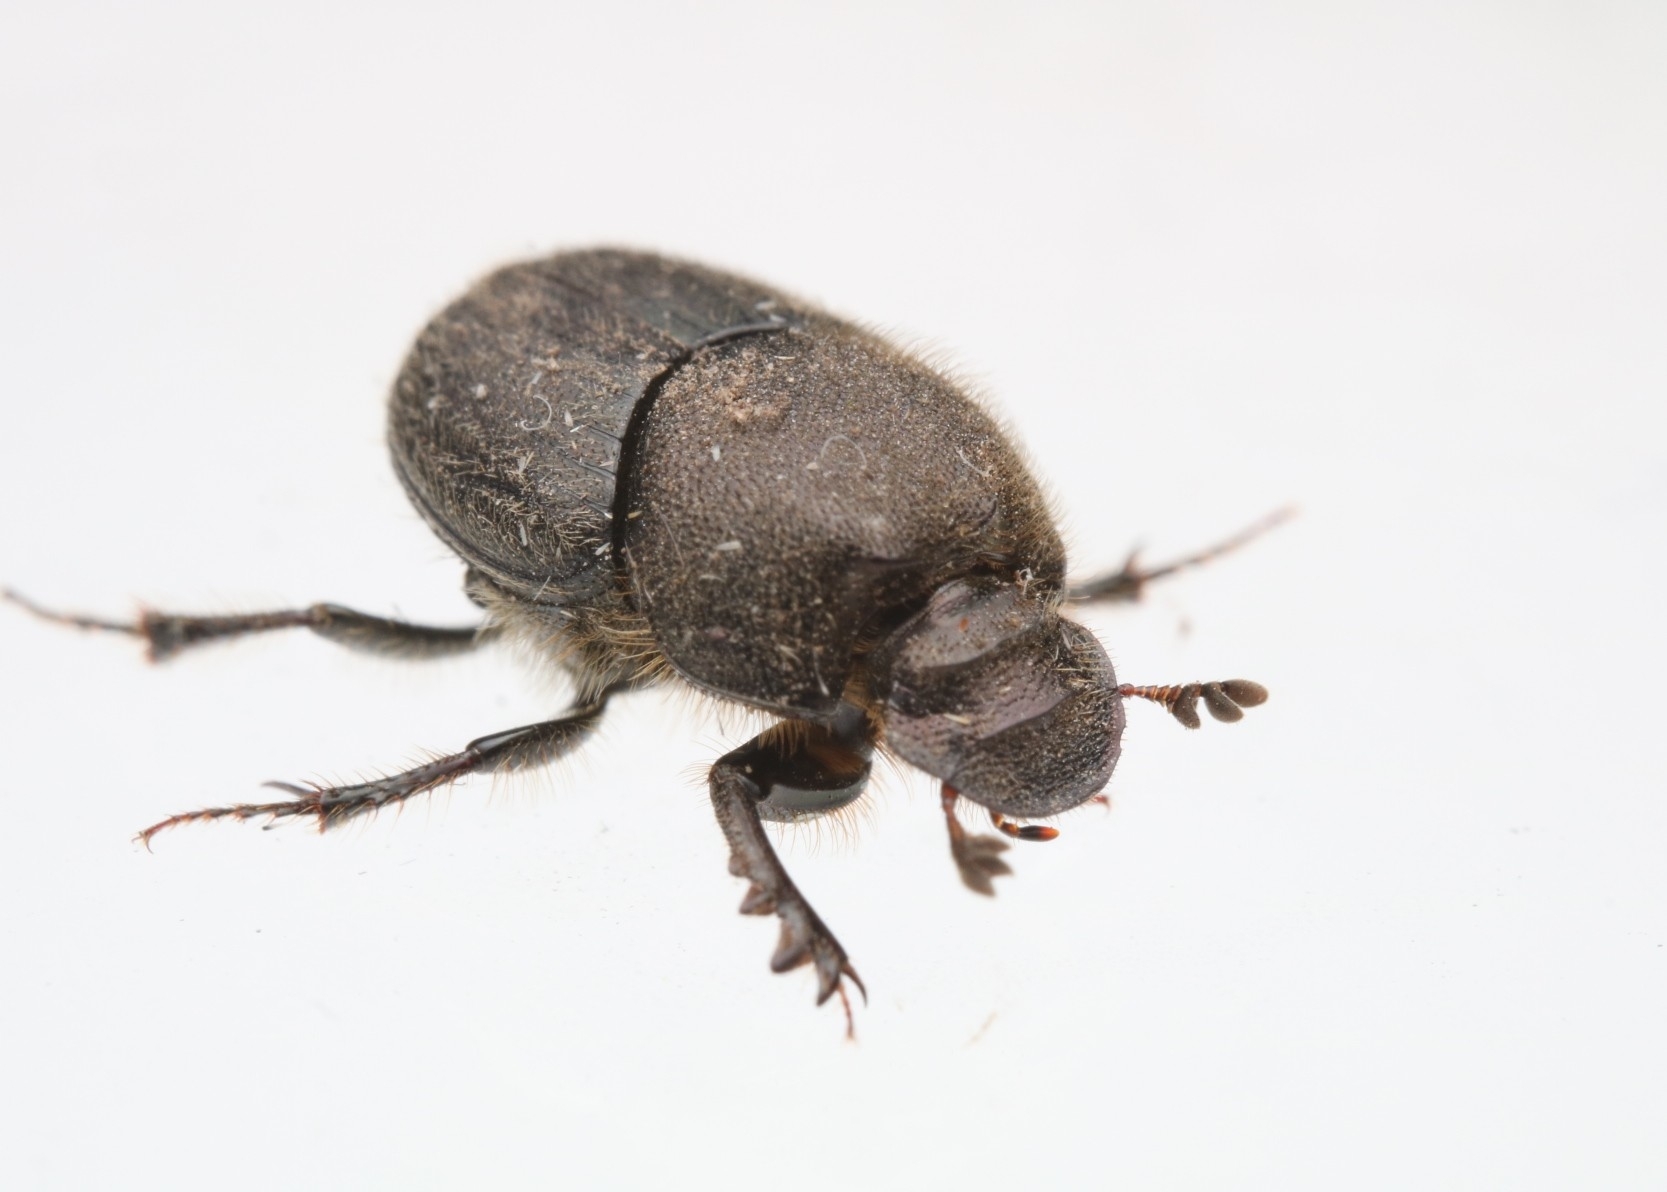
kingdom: Animalia
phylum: Arthropoda
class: Insecta
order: Coleoptera
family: Scarabaeidae
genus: Onthophagus
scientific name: Onthophagus hecate
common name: Scooped scarab
